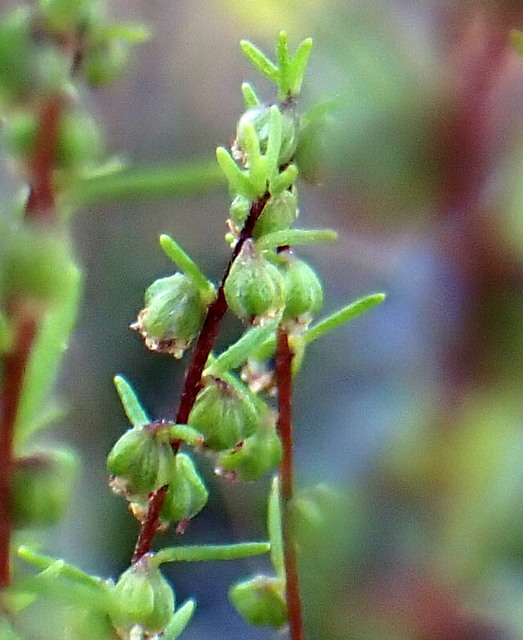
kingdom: Plantae
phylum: Tracheophyta
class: Magnoliopsida
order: Asterales
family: Asteraceae
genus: Iva
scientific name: Iva microcephala
